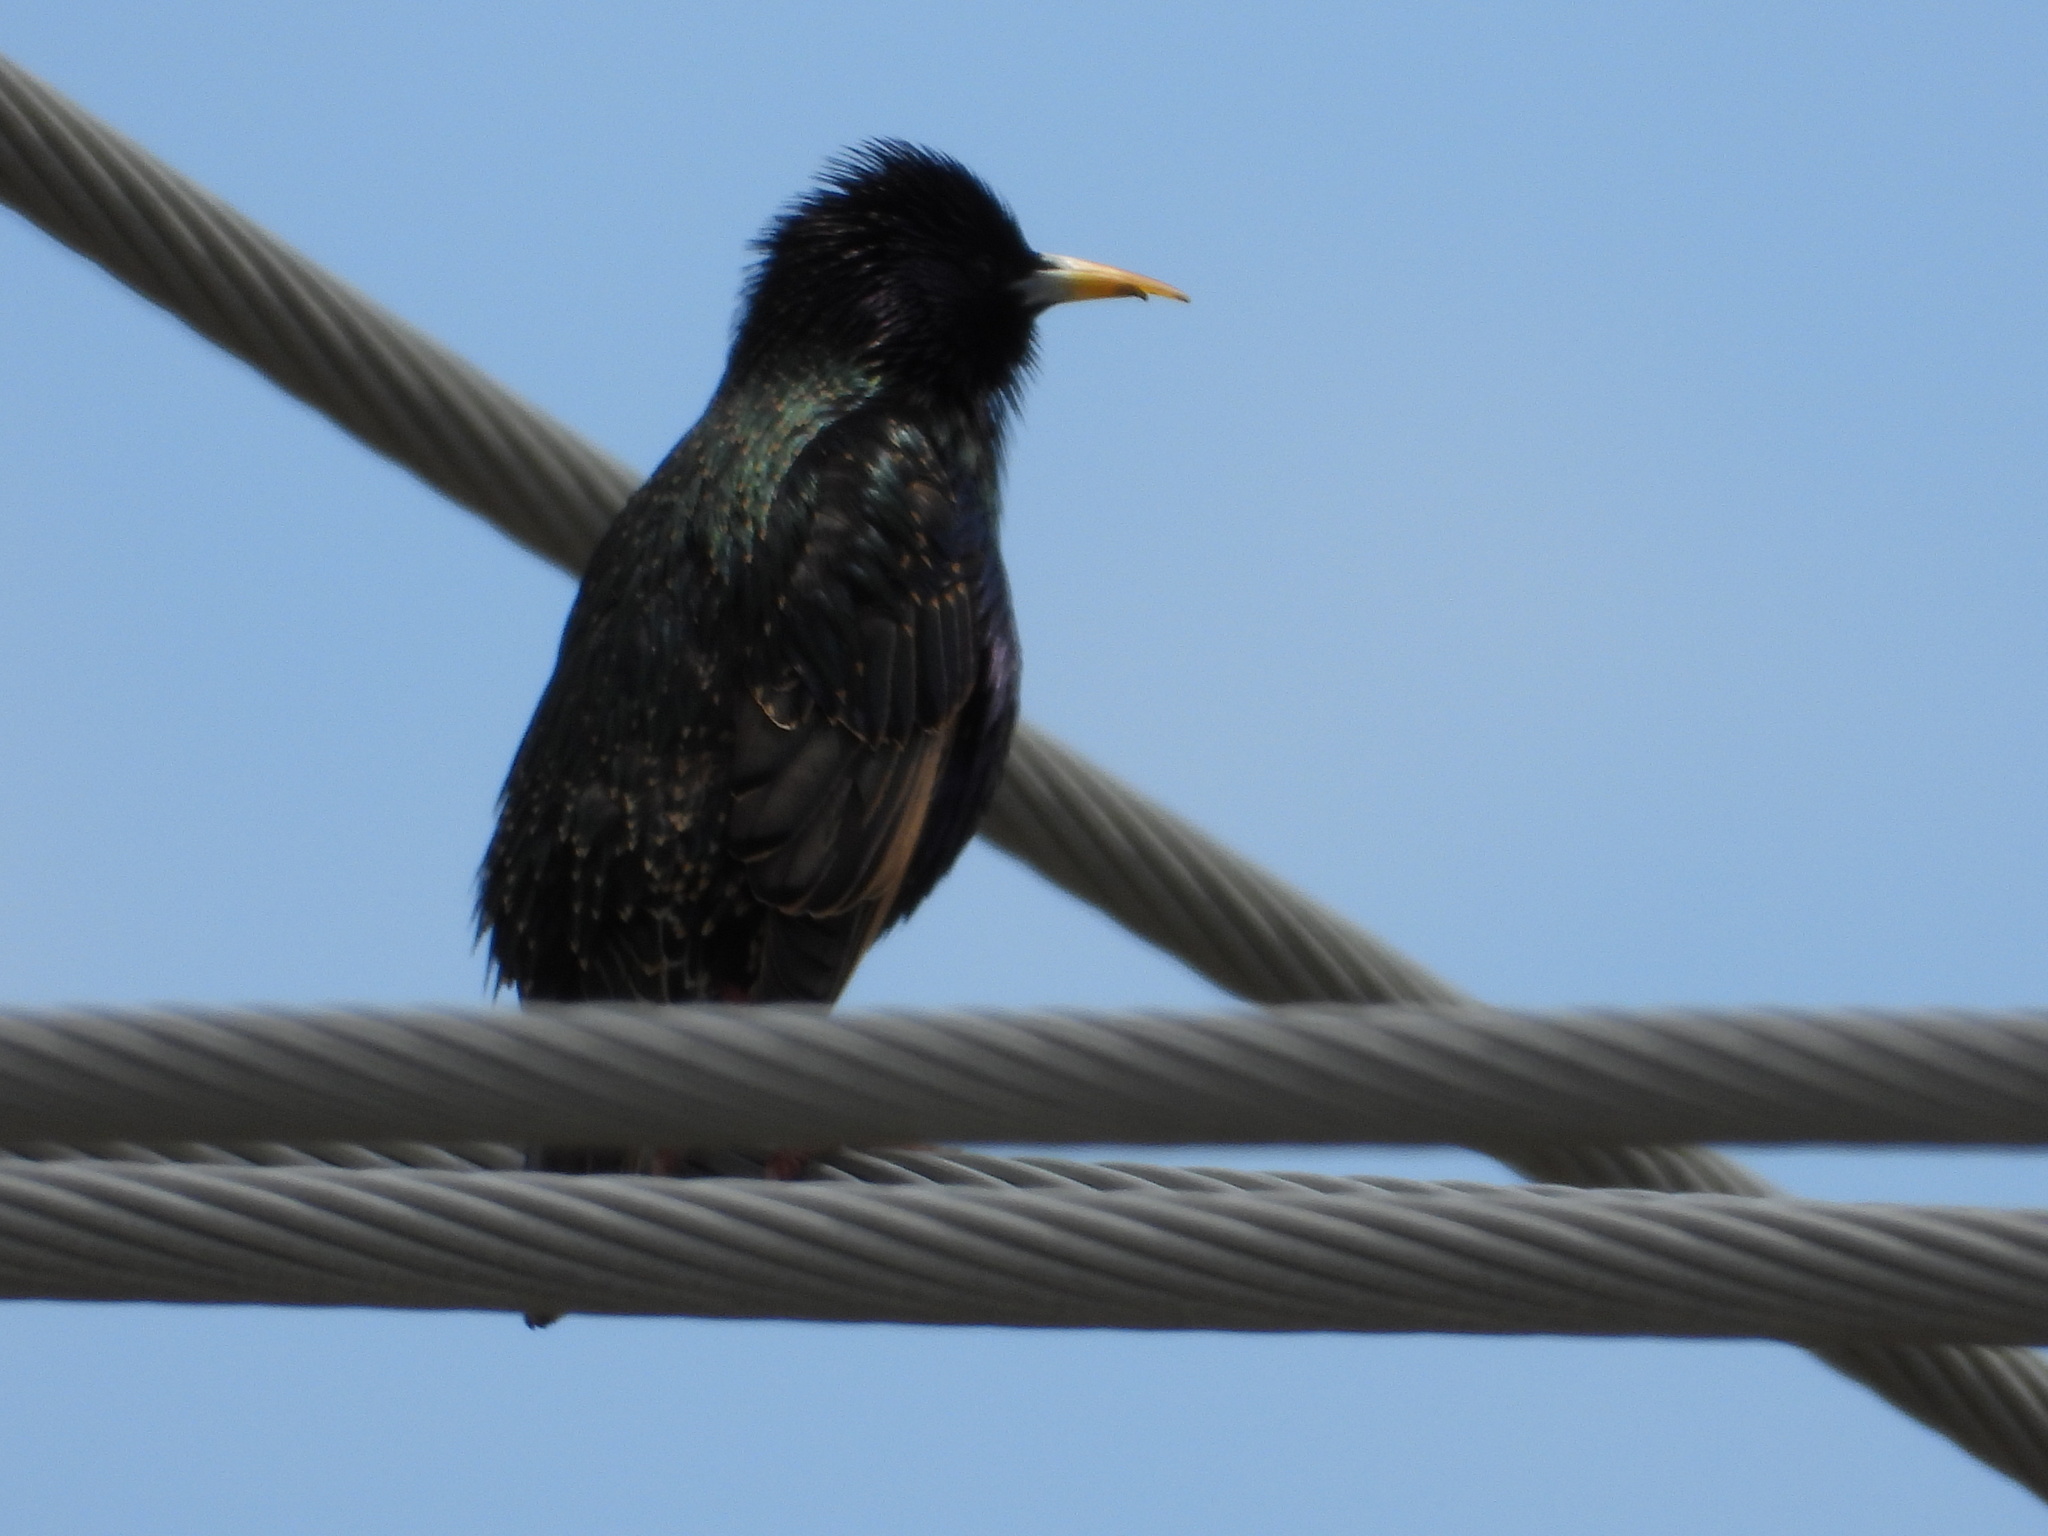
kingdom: Animalia
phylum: Chordata
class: Aves
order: Passeriformes
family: Sturnidae
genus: Sturnus
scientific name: Sturnus vulgaris
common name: Common starling
